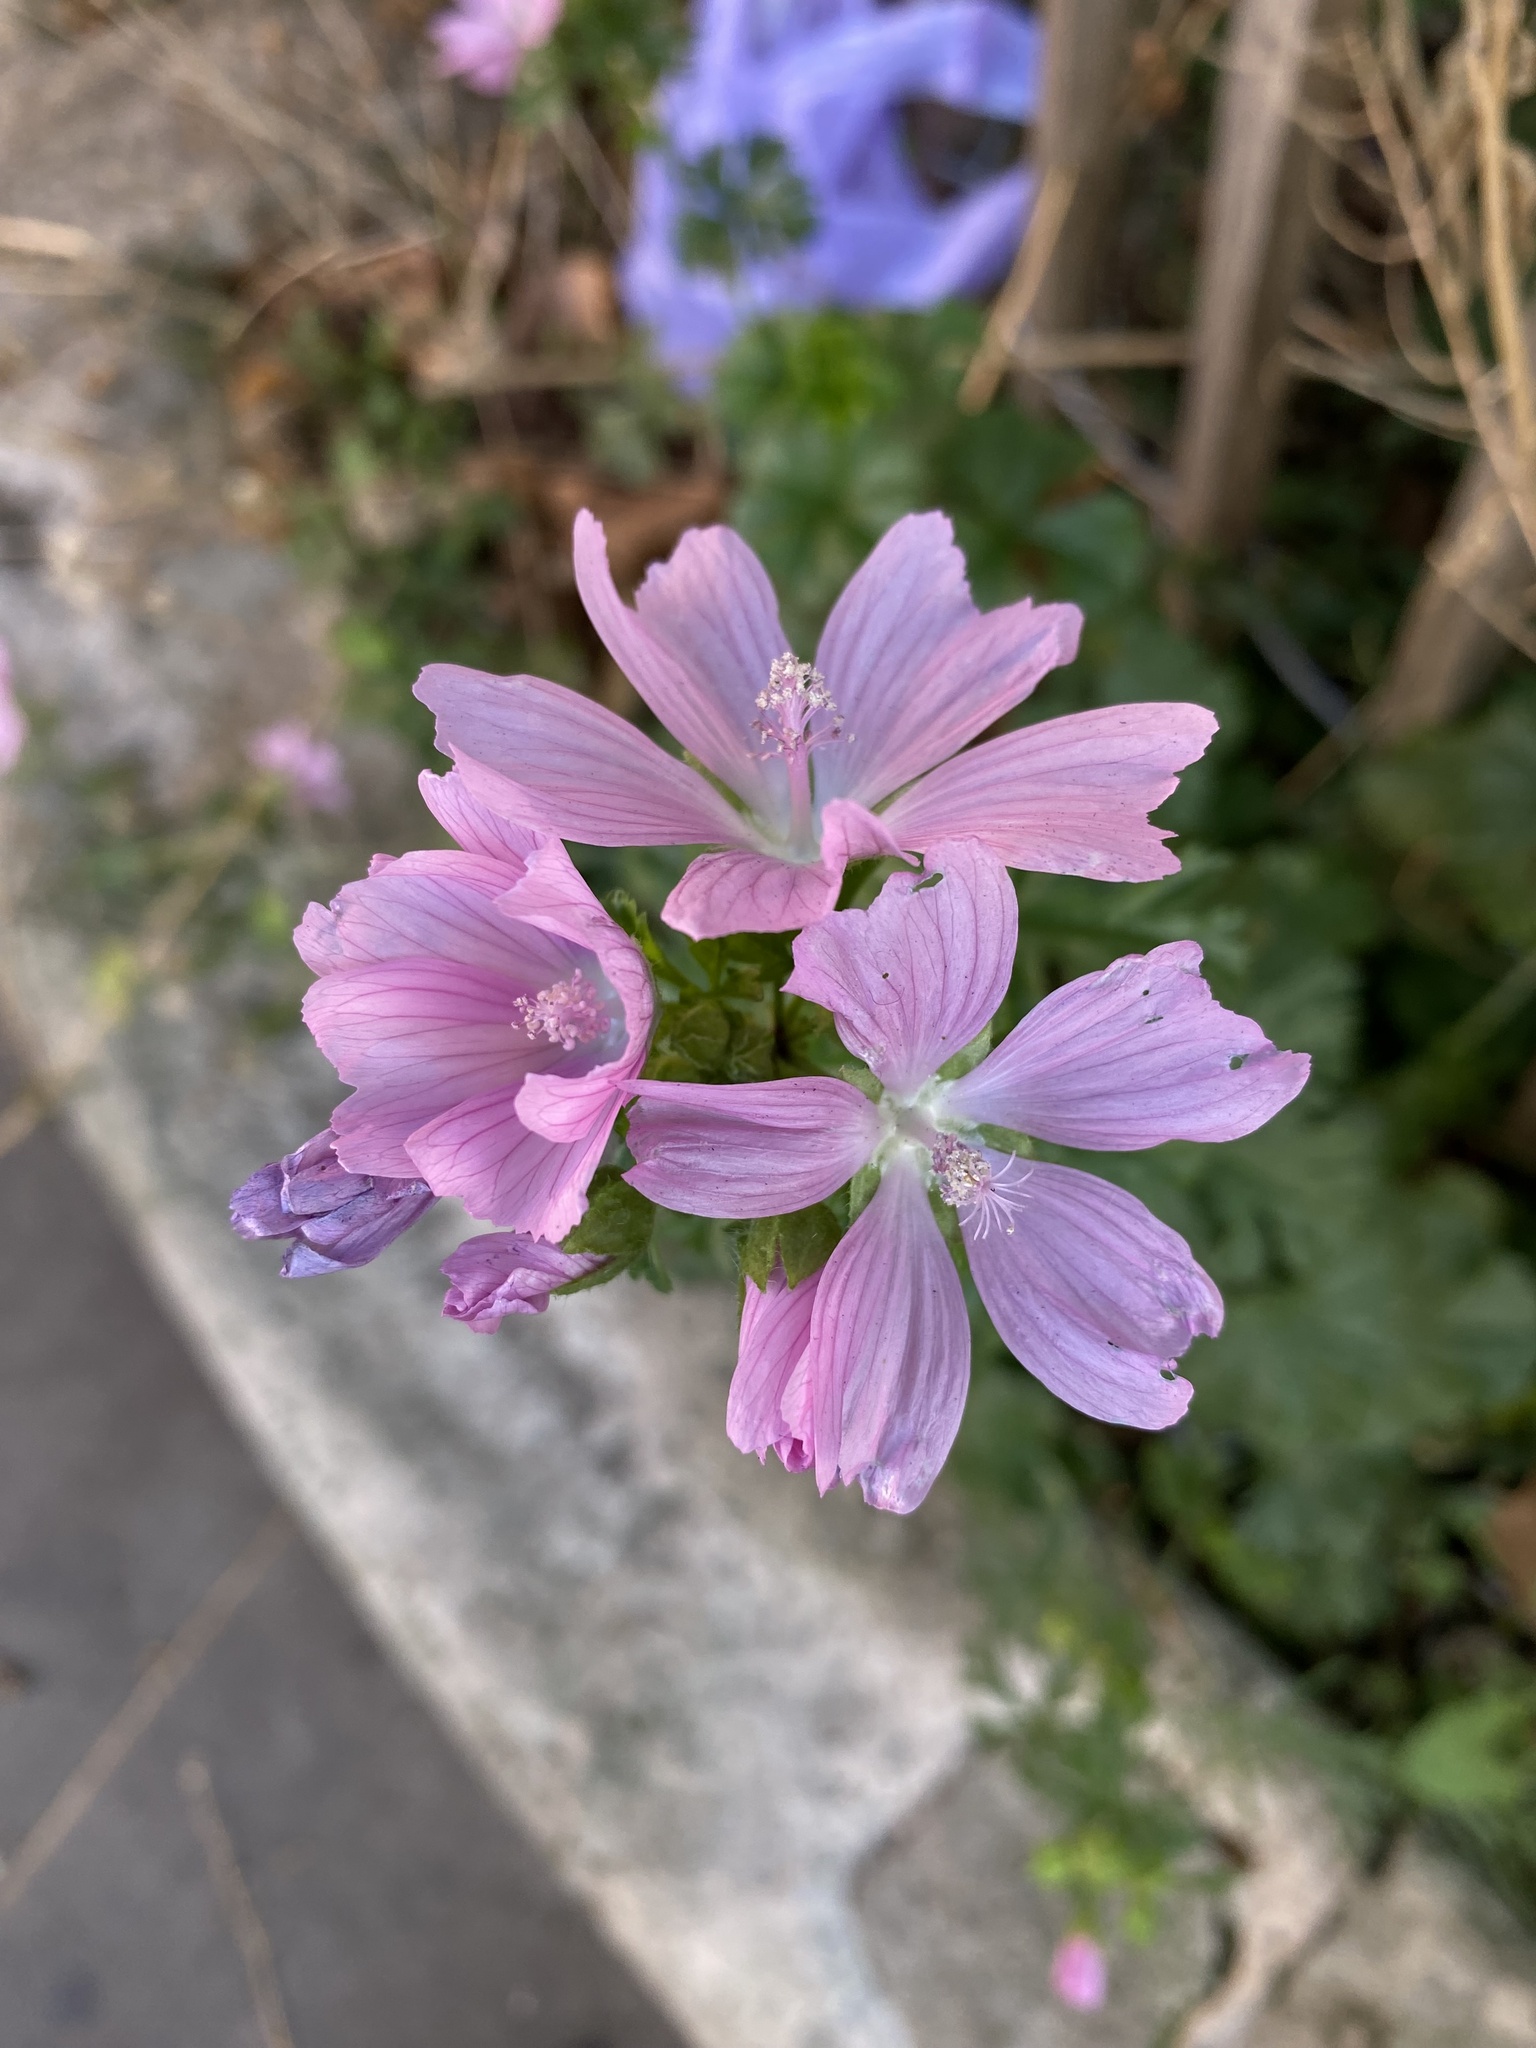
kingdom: Plantae
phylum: Tracheophyta
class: Magnoliopsida
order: Malvales
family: Malvaceae
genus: Malva
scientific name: Malva moschata
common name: Musk mallow
